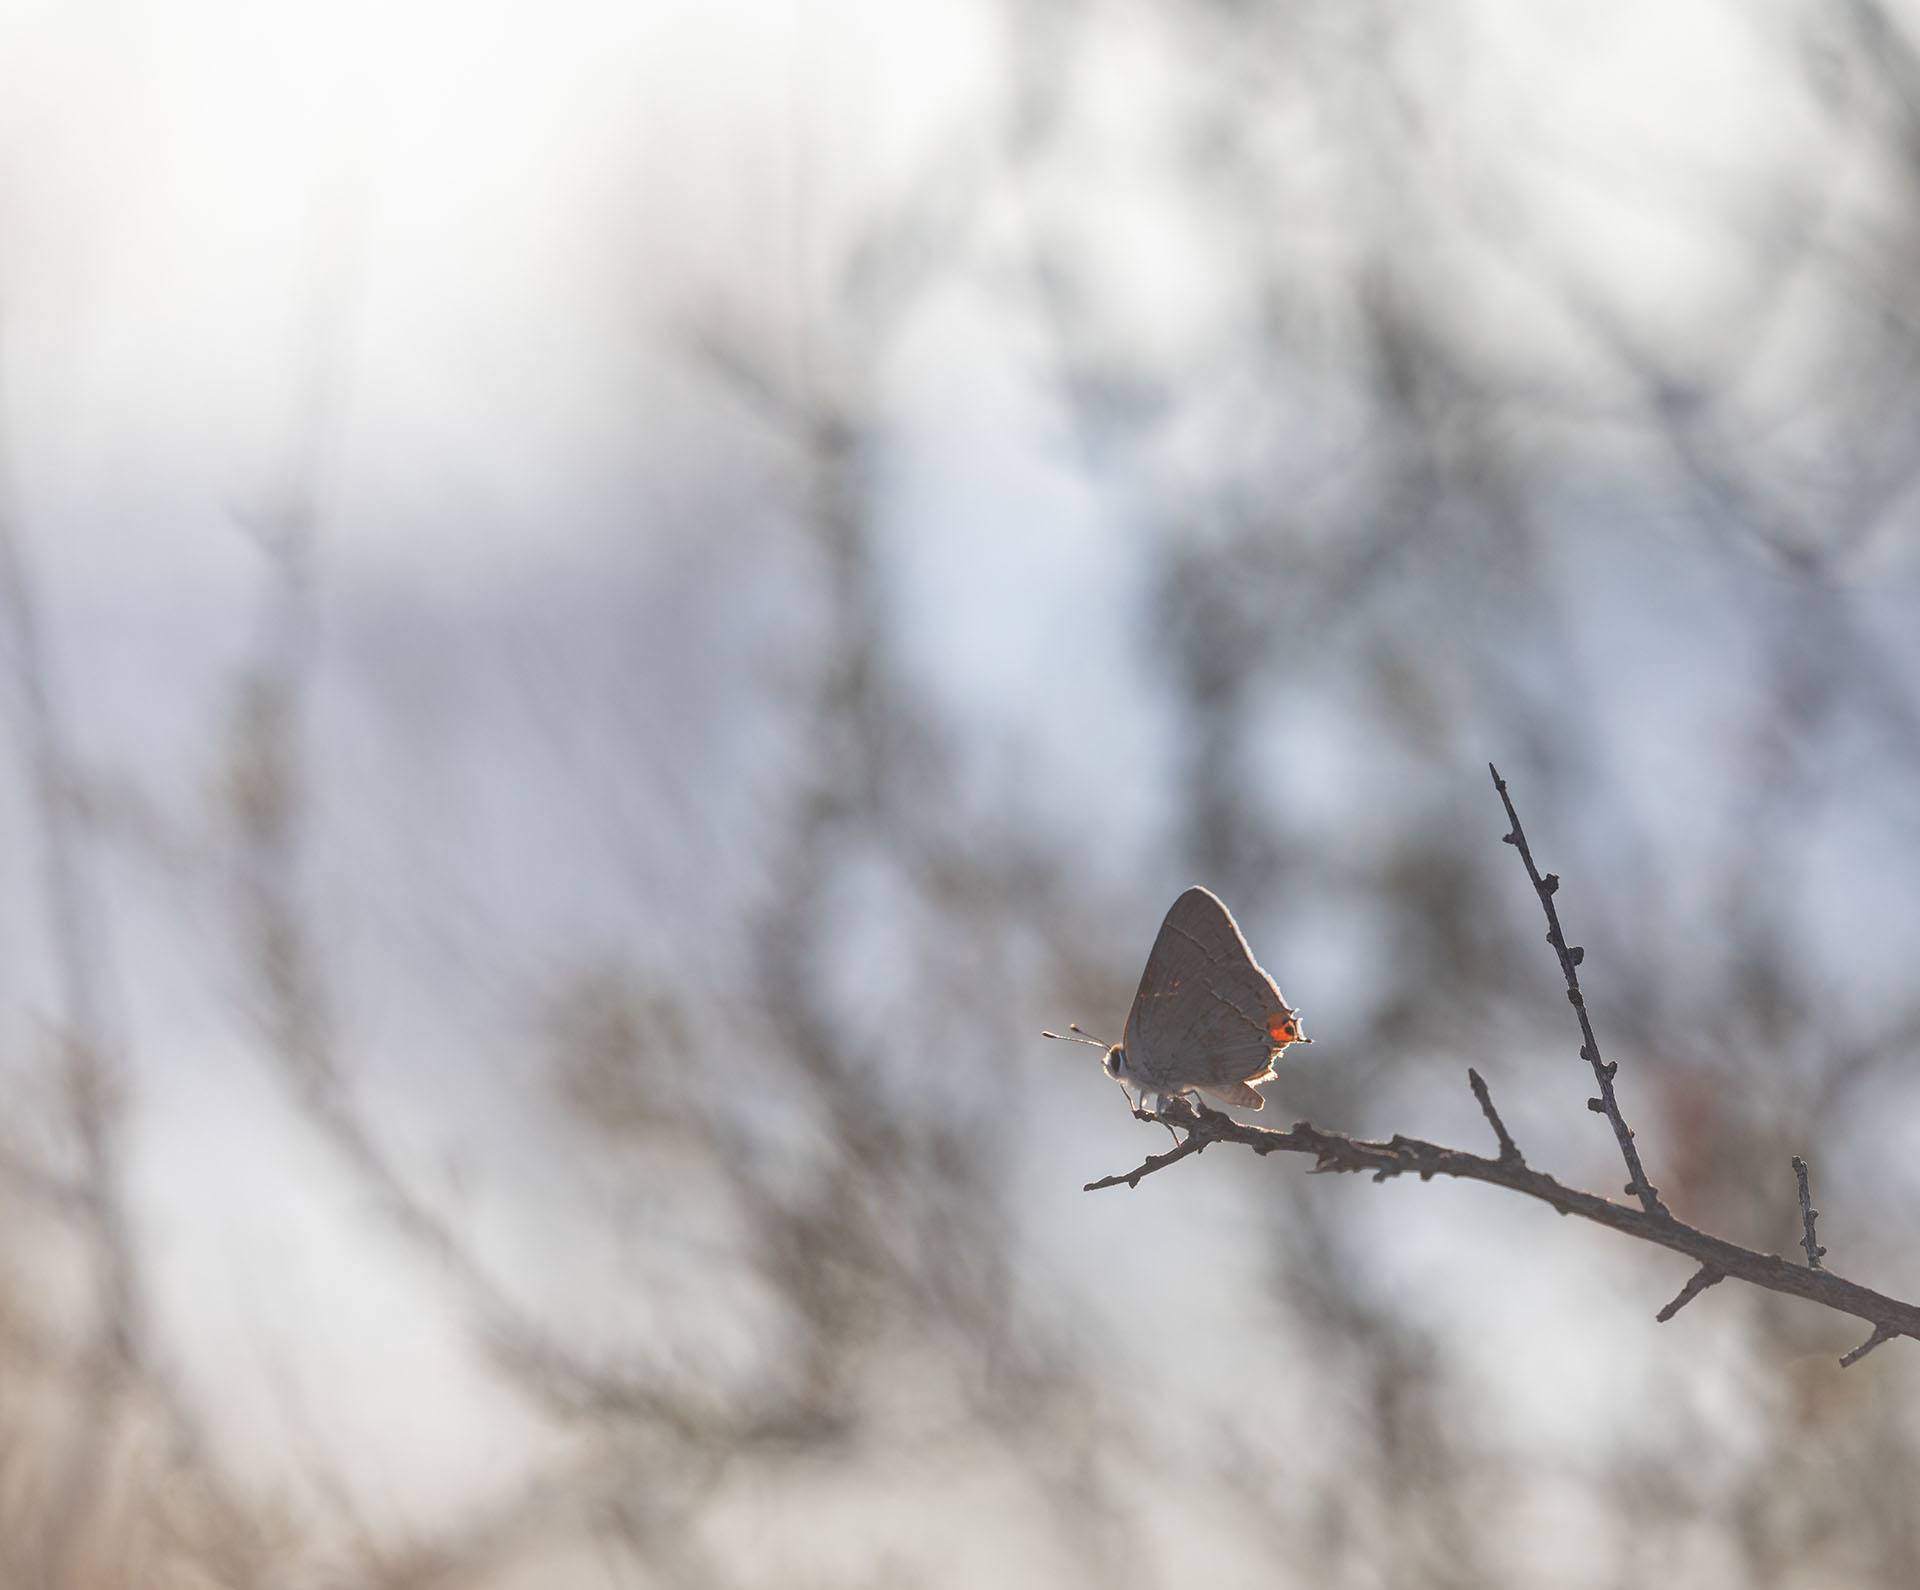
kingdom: Animalia
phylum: Arthropoda
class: Insecta
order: Lepidoptera
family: Lycaenidae
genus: Strymon
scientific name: Strymon melinus
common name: Gray hairstreak
